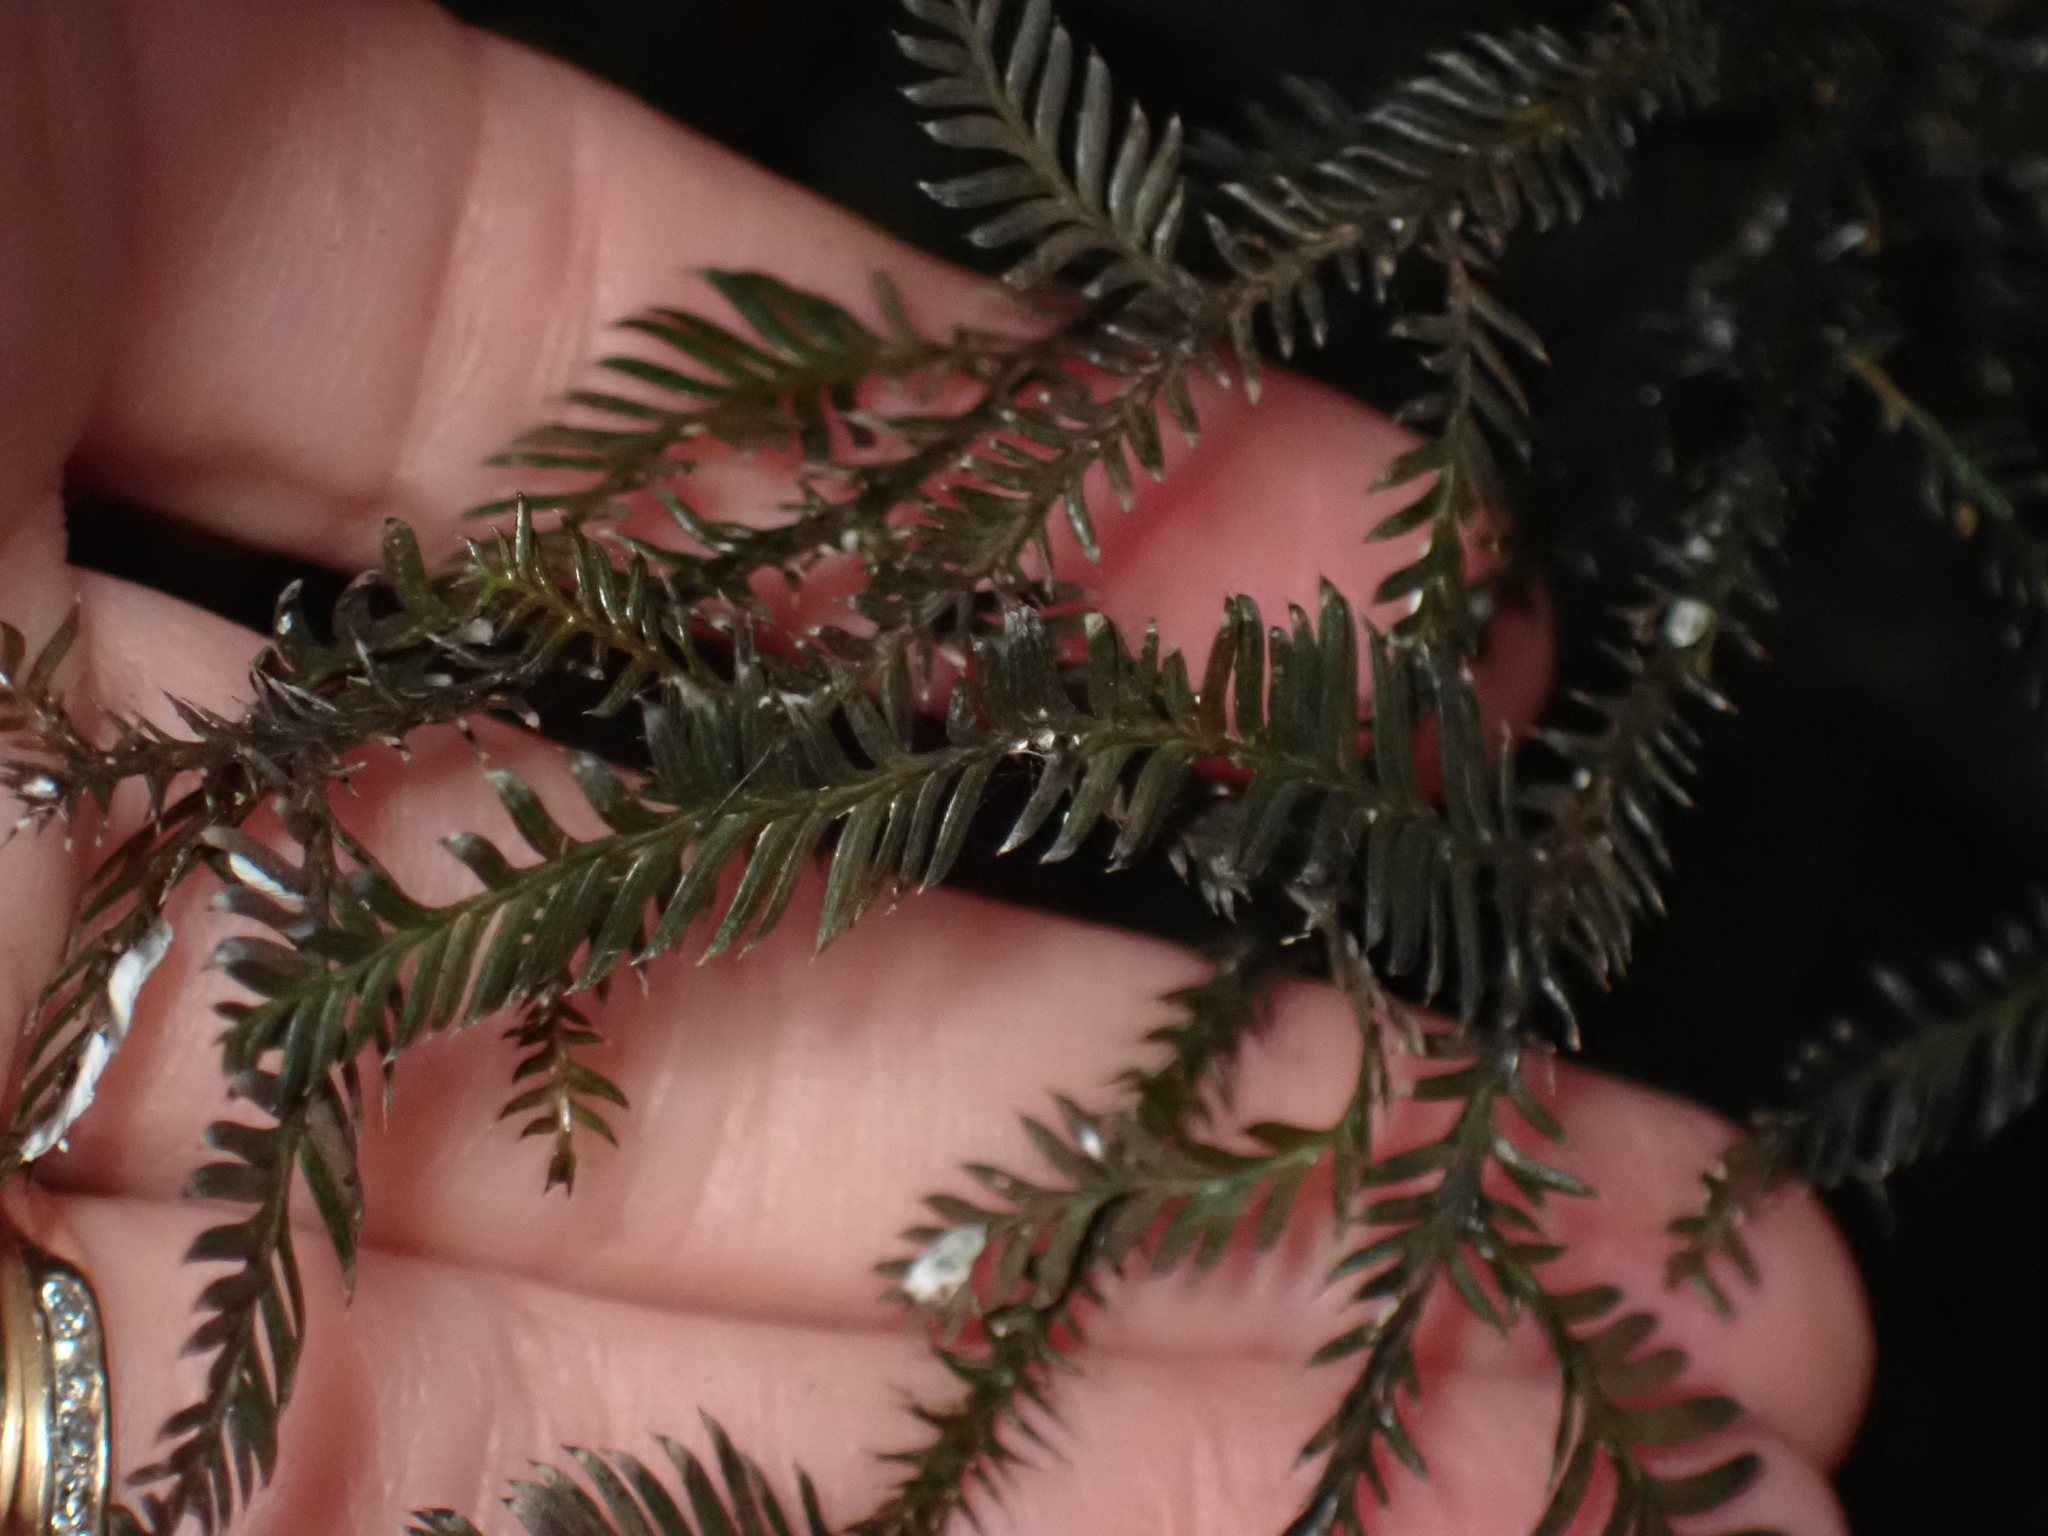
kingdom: Plantae
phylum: Tracheophyta
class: Pinopsida
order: Pinales
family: Podocarpaceae
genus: Dacrycarpus
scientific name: Dacrycarpus dacrydioides
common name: White pine
